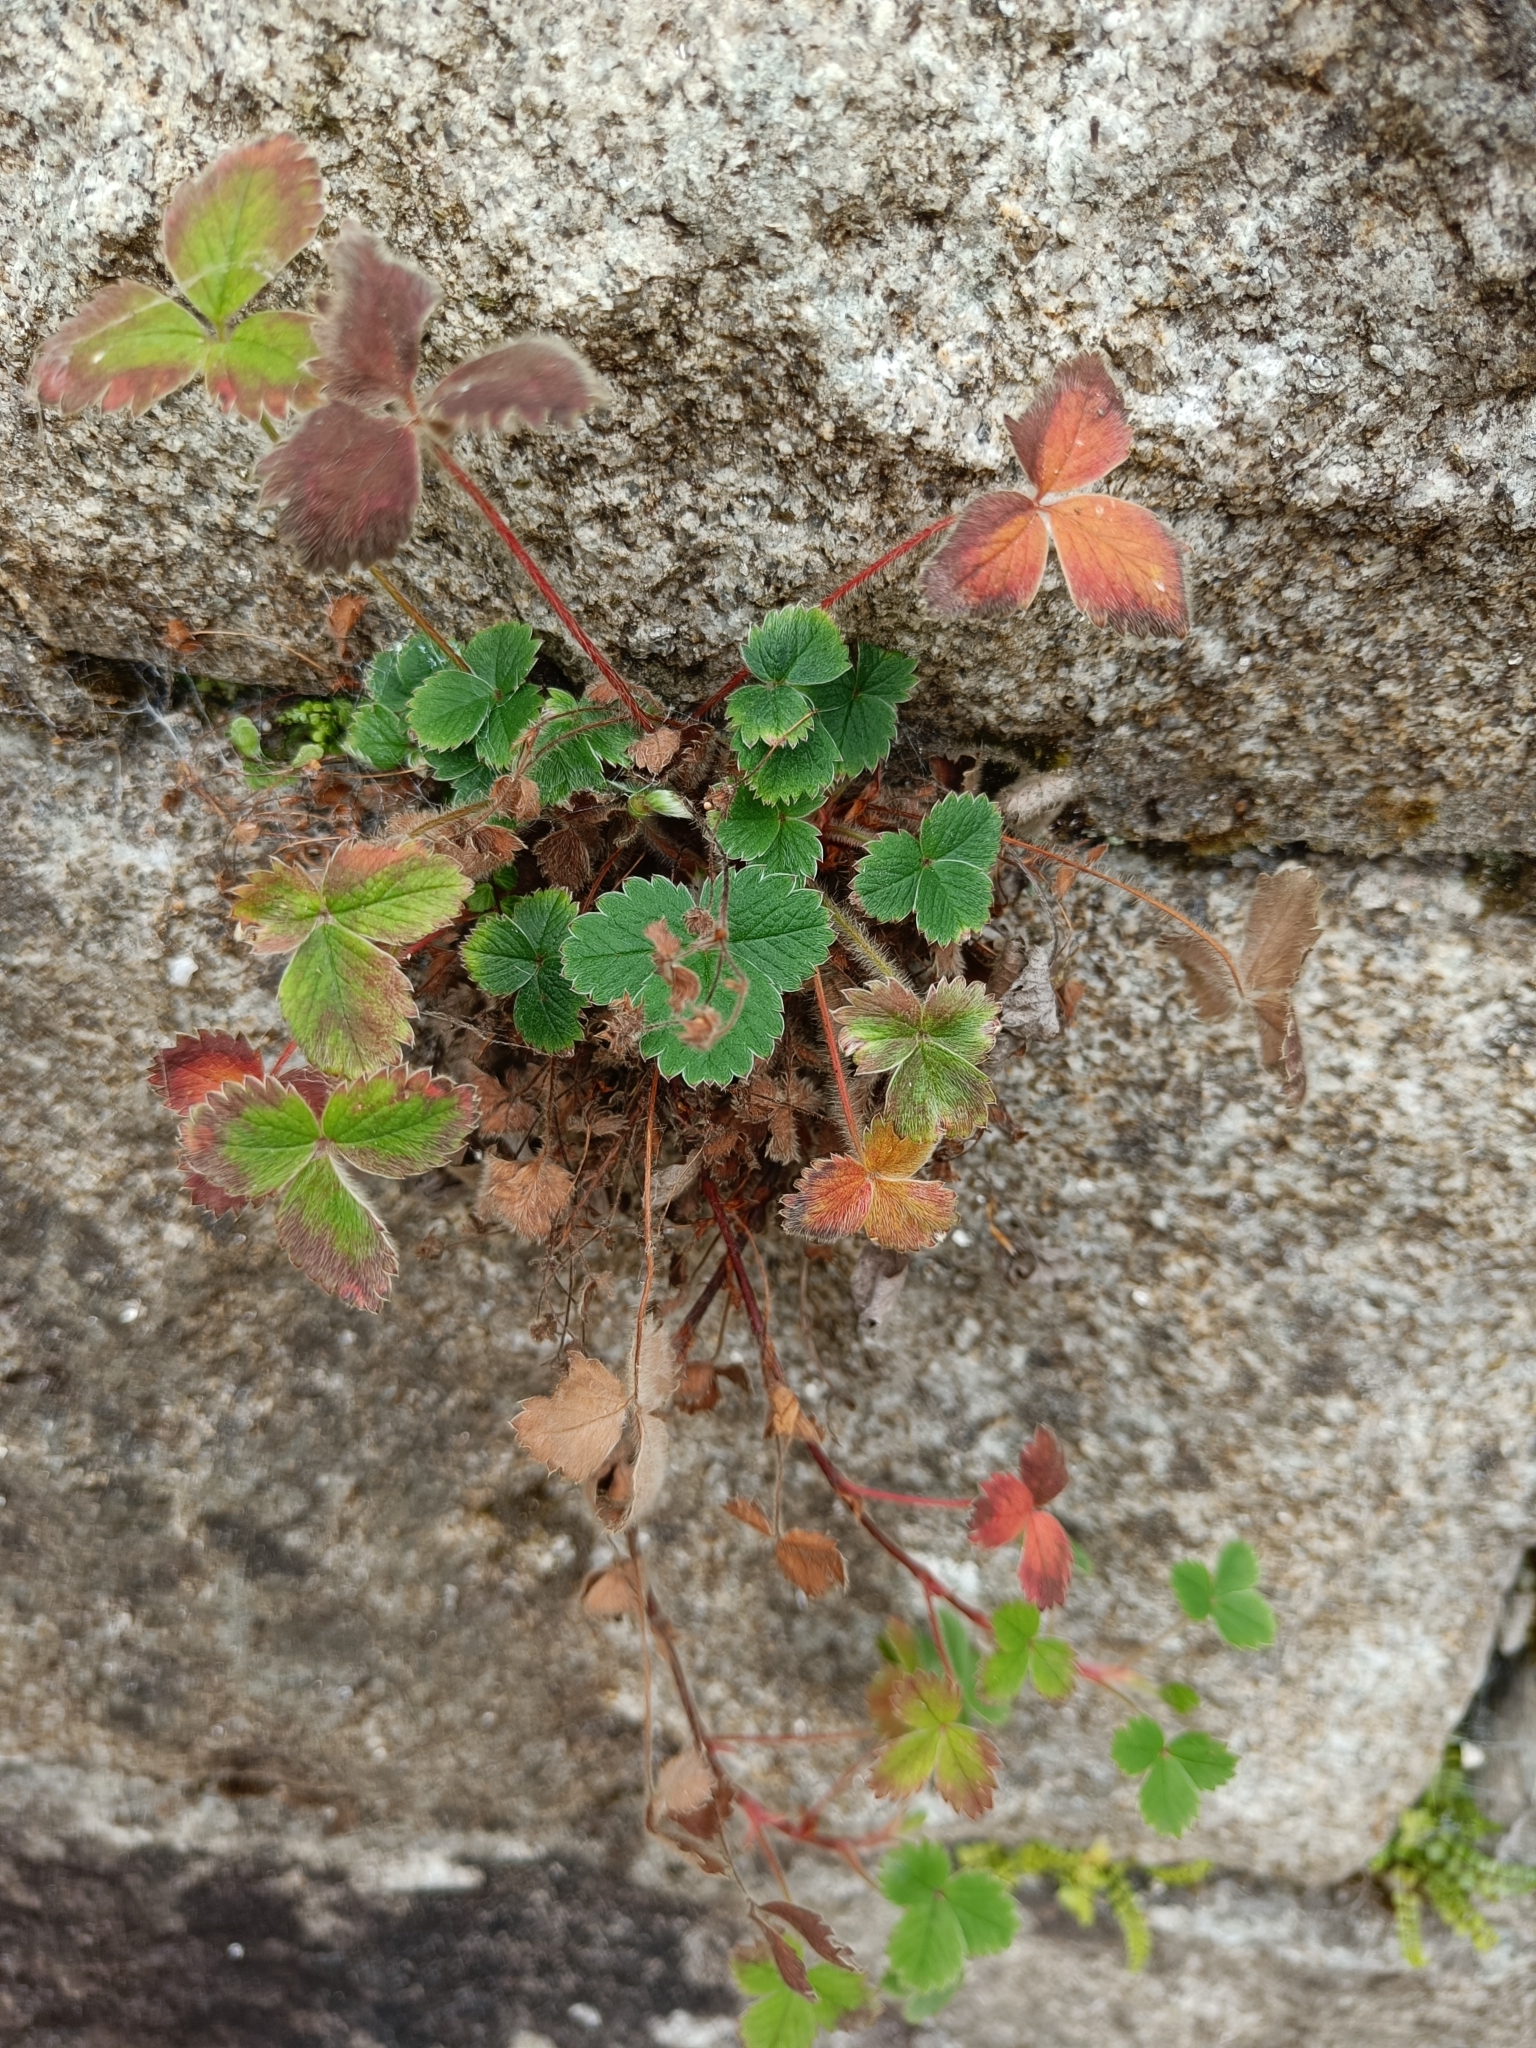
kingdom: Plantae
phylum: Tracheophyta
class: Magnoliopsida
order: Rosales
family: Rosaceae
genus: Potentilla
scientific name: Potentilla sterilis
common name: Barren strawberry
